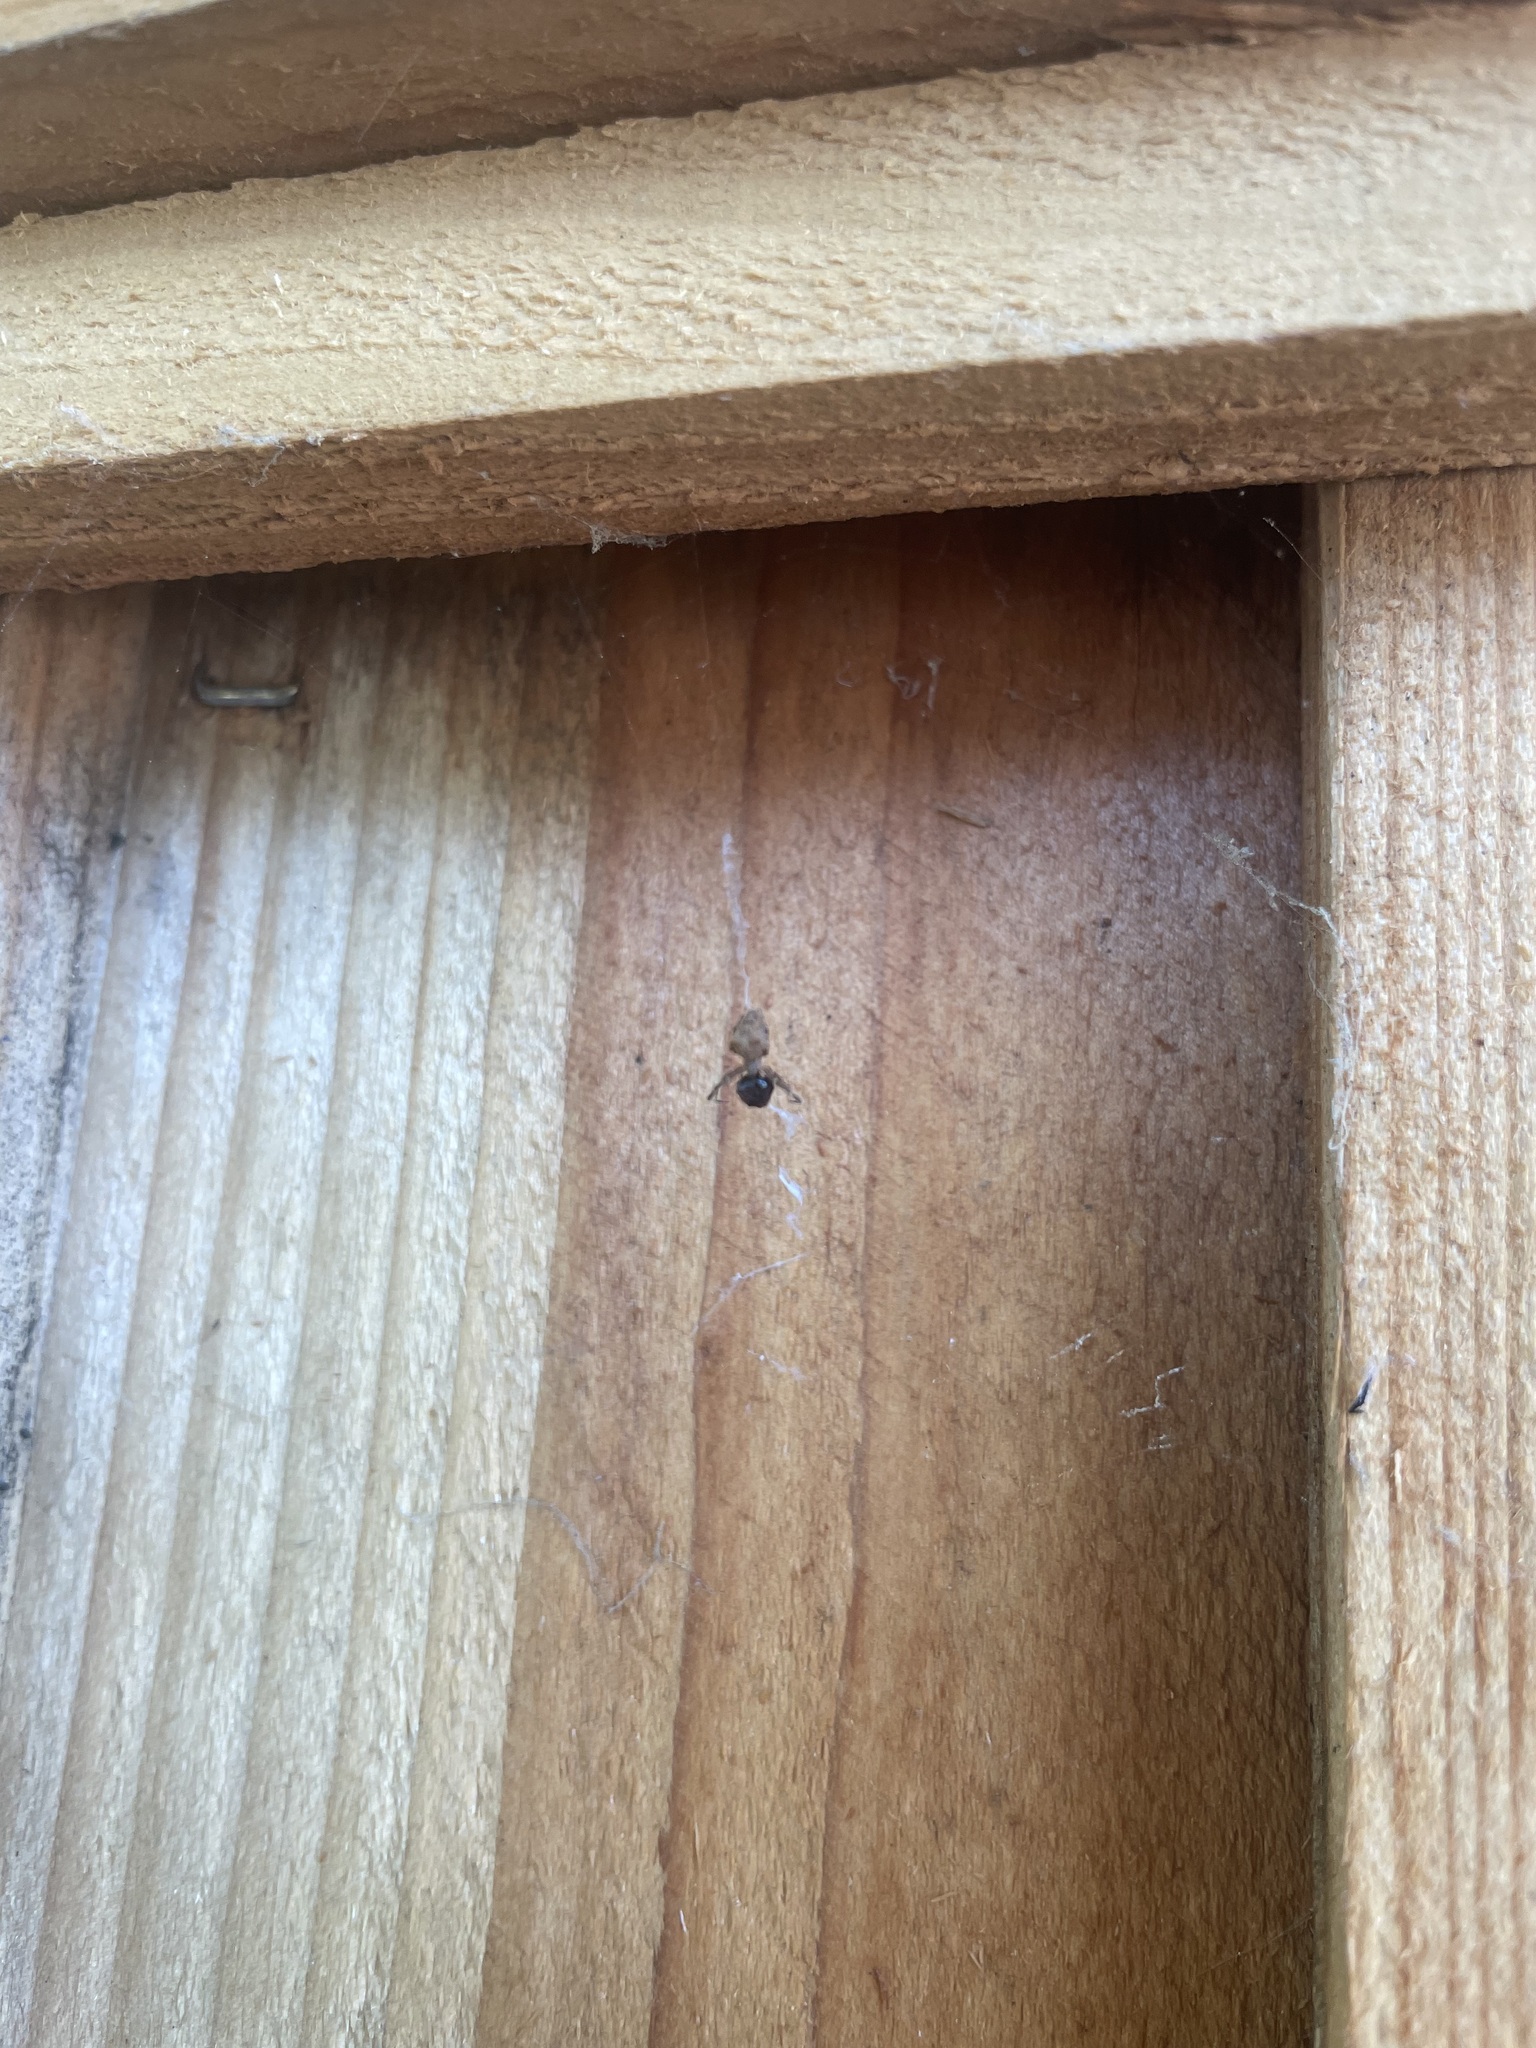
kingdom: Animalia
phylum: Arthropoda
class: Arachnida
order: Araneae
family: Uloboridae
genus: Uloborus
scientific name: Uloborus diversus
